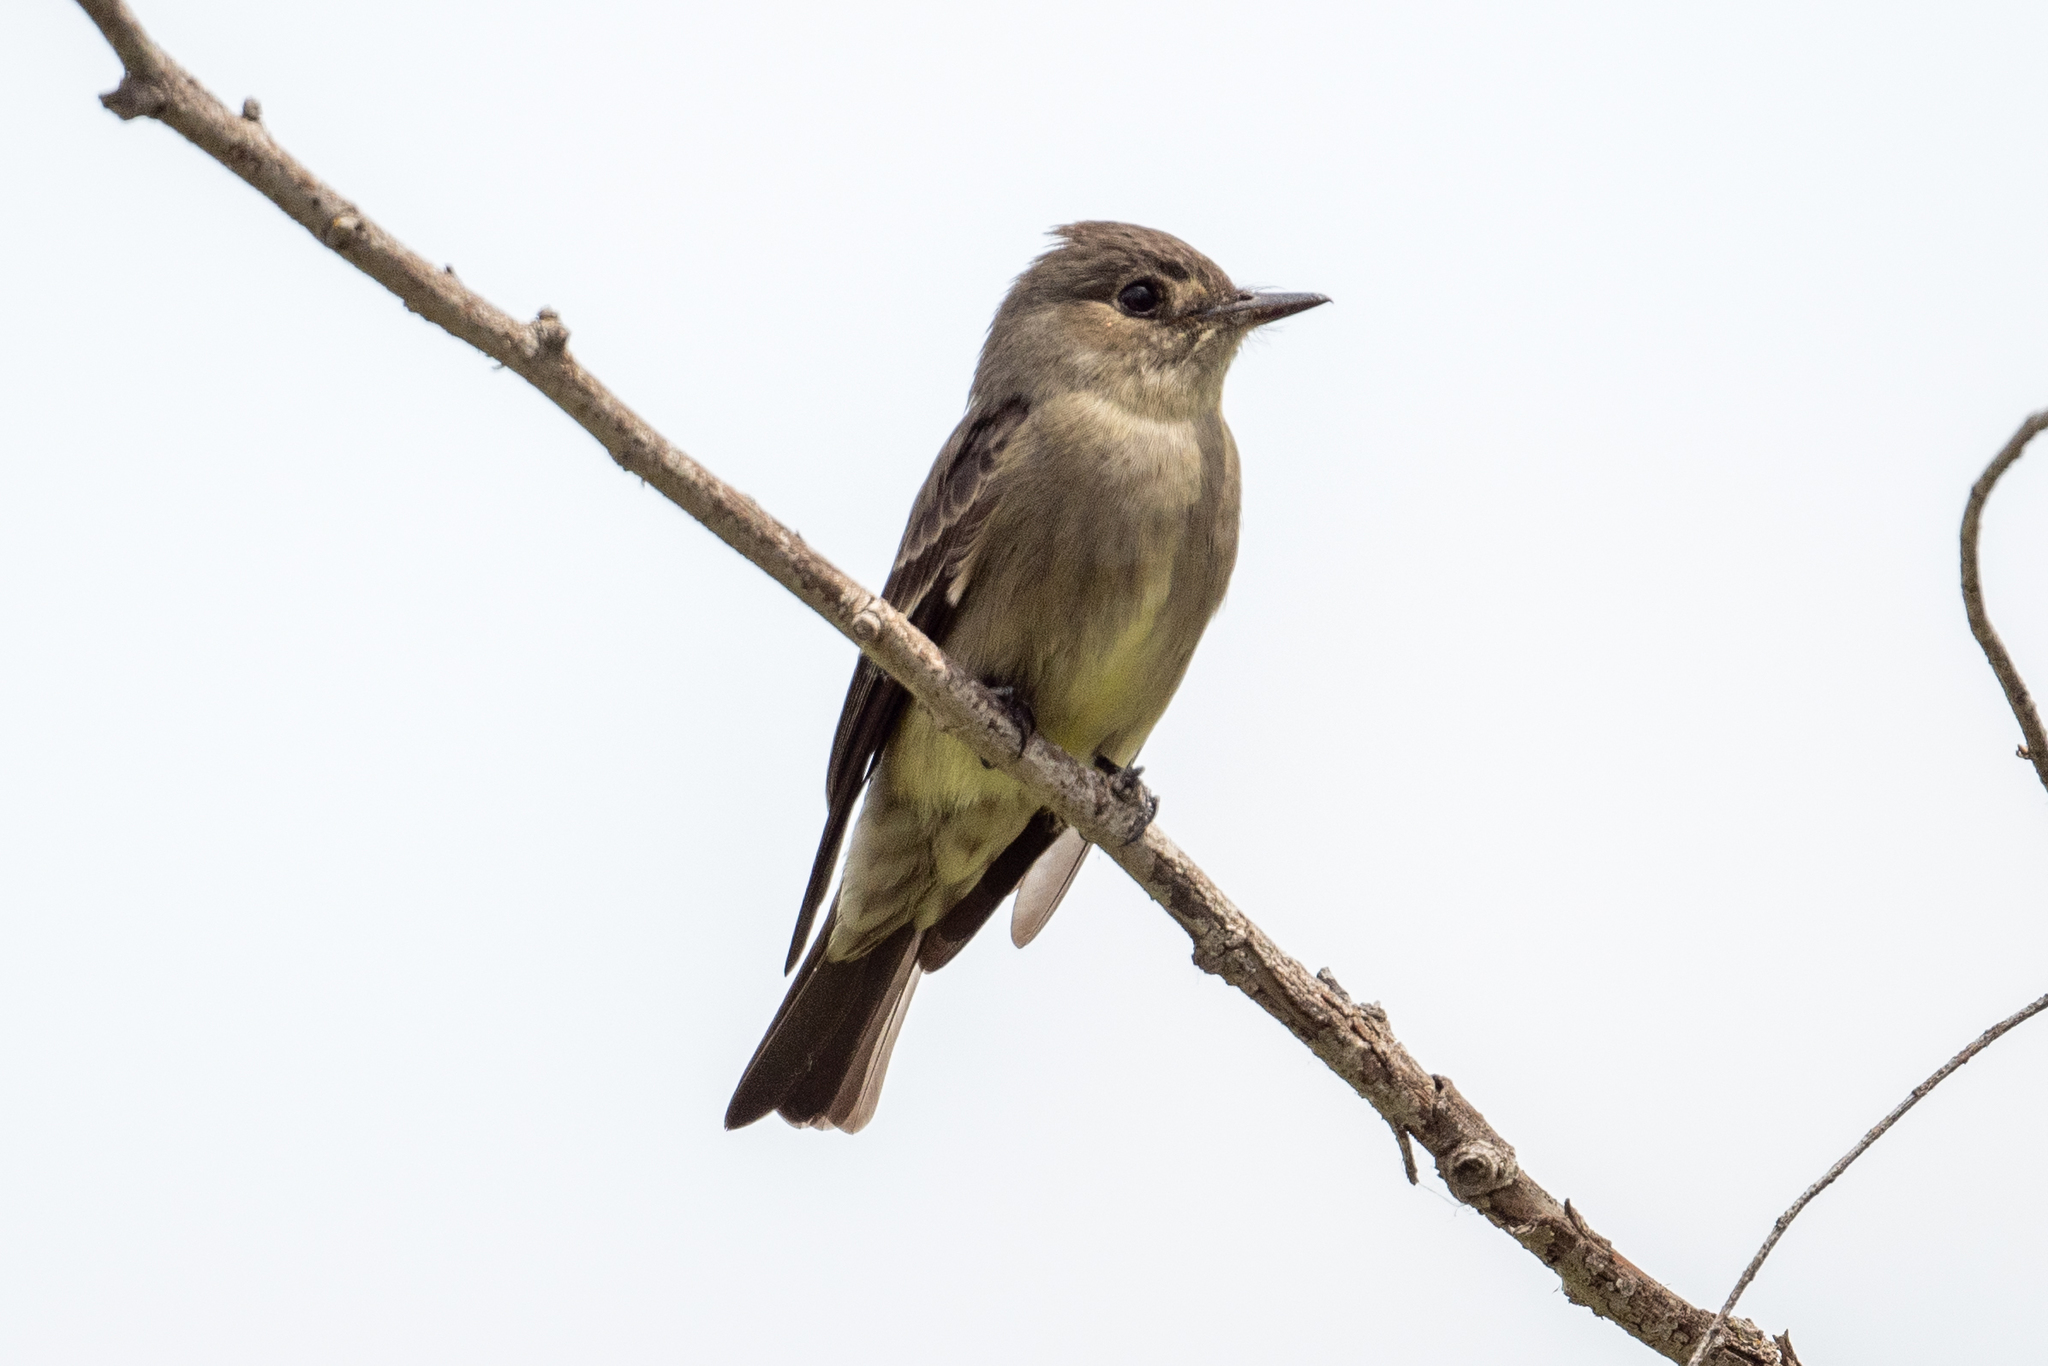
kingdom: Animalia
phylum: Chordata
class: Aves
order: Passeriformes
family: Tyrannidae
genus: Contopus
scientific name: Contopus sordidulus
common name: Western wood-pewee
